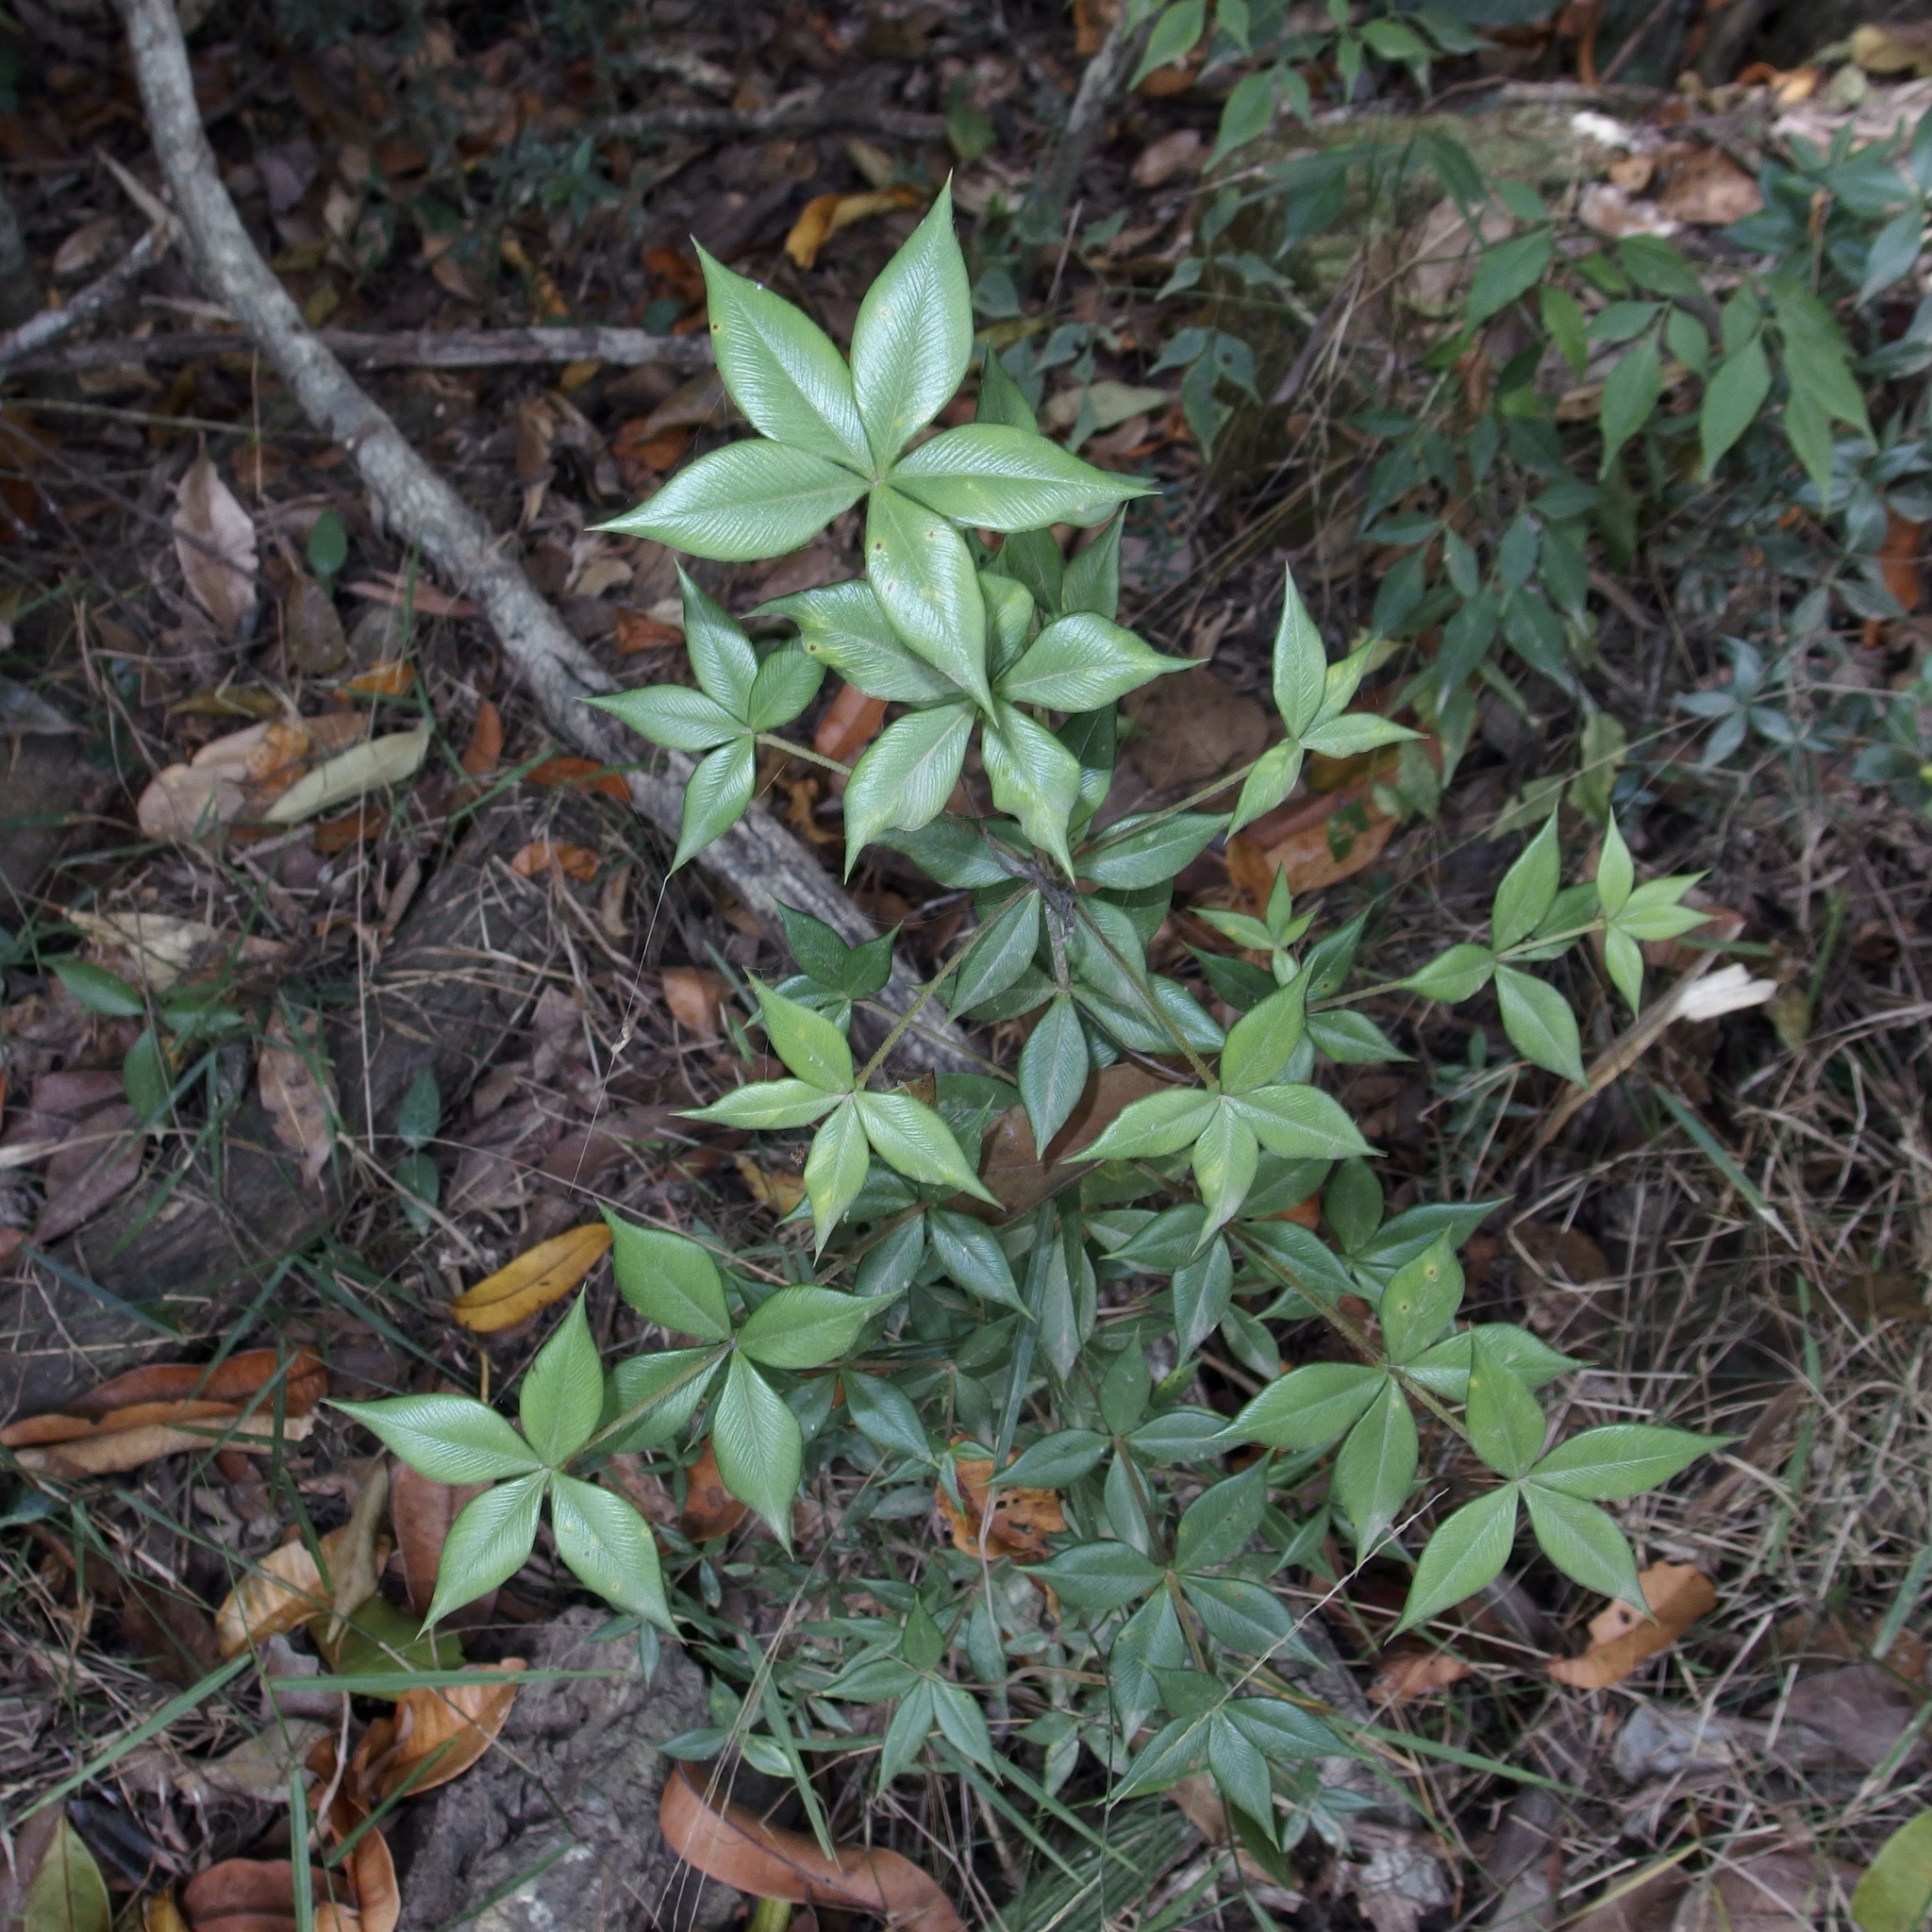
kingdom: Plantae
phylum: Tracheophyta
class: Magnoliopsida
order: Gentianales
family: Apocynaceae
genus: Alyxia
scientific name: Alyxia ruscifolia
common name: Chainfruit
